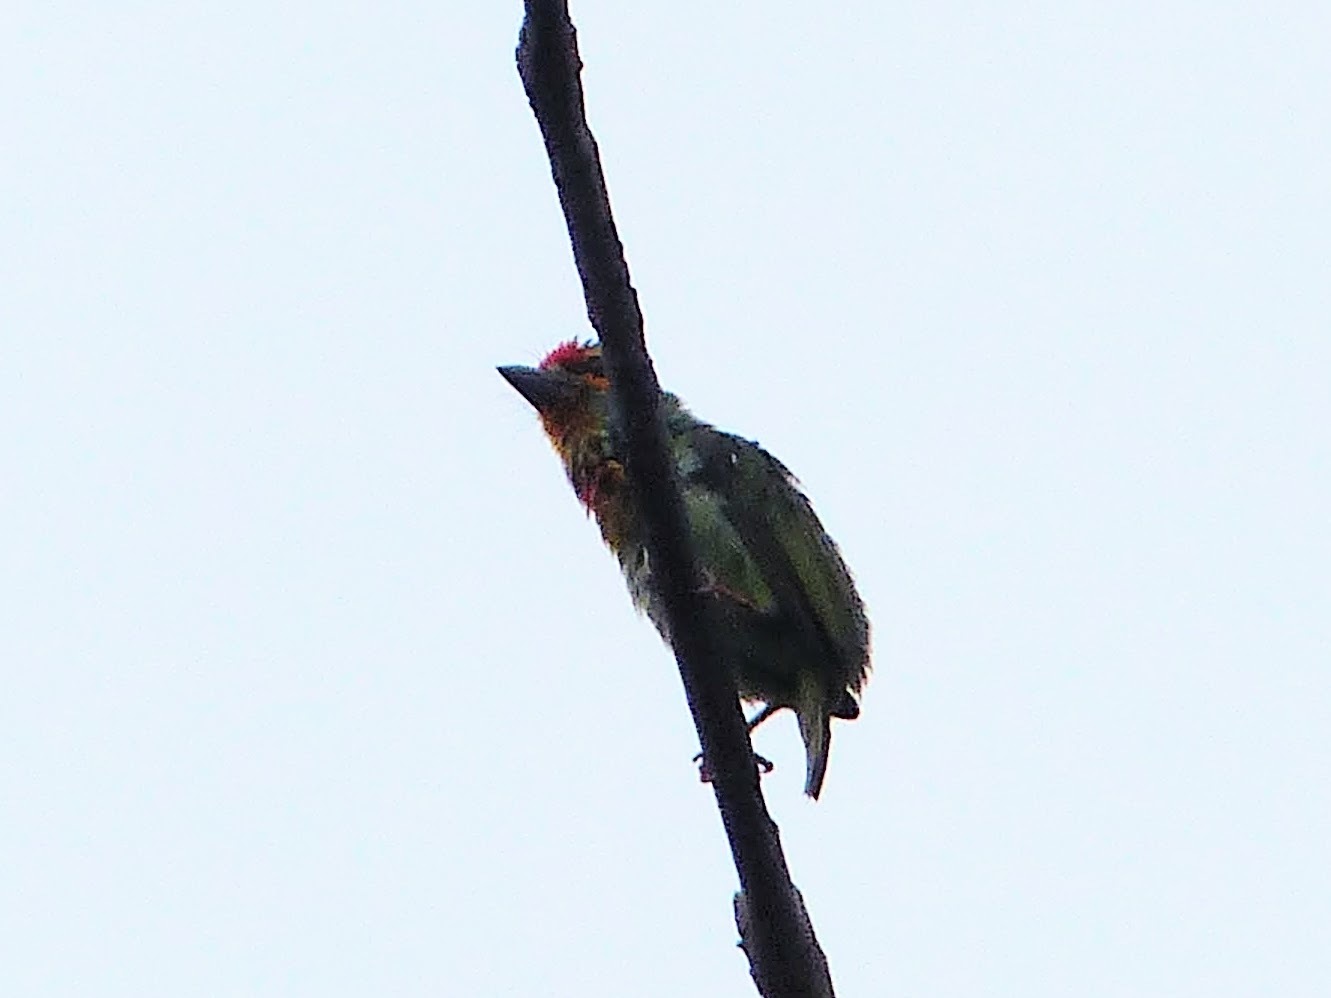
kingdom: Animalia
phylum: Chordata
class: Aves
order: Piciformes
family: Megalaimidae
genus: Psilopogon
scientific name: Psilopogon rubricapillus
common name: Crimson-fronted barbet
